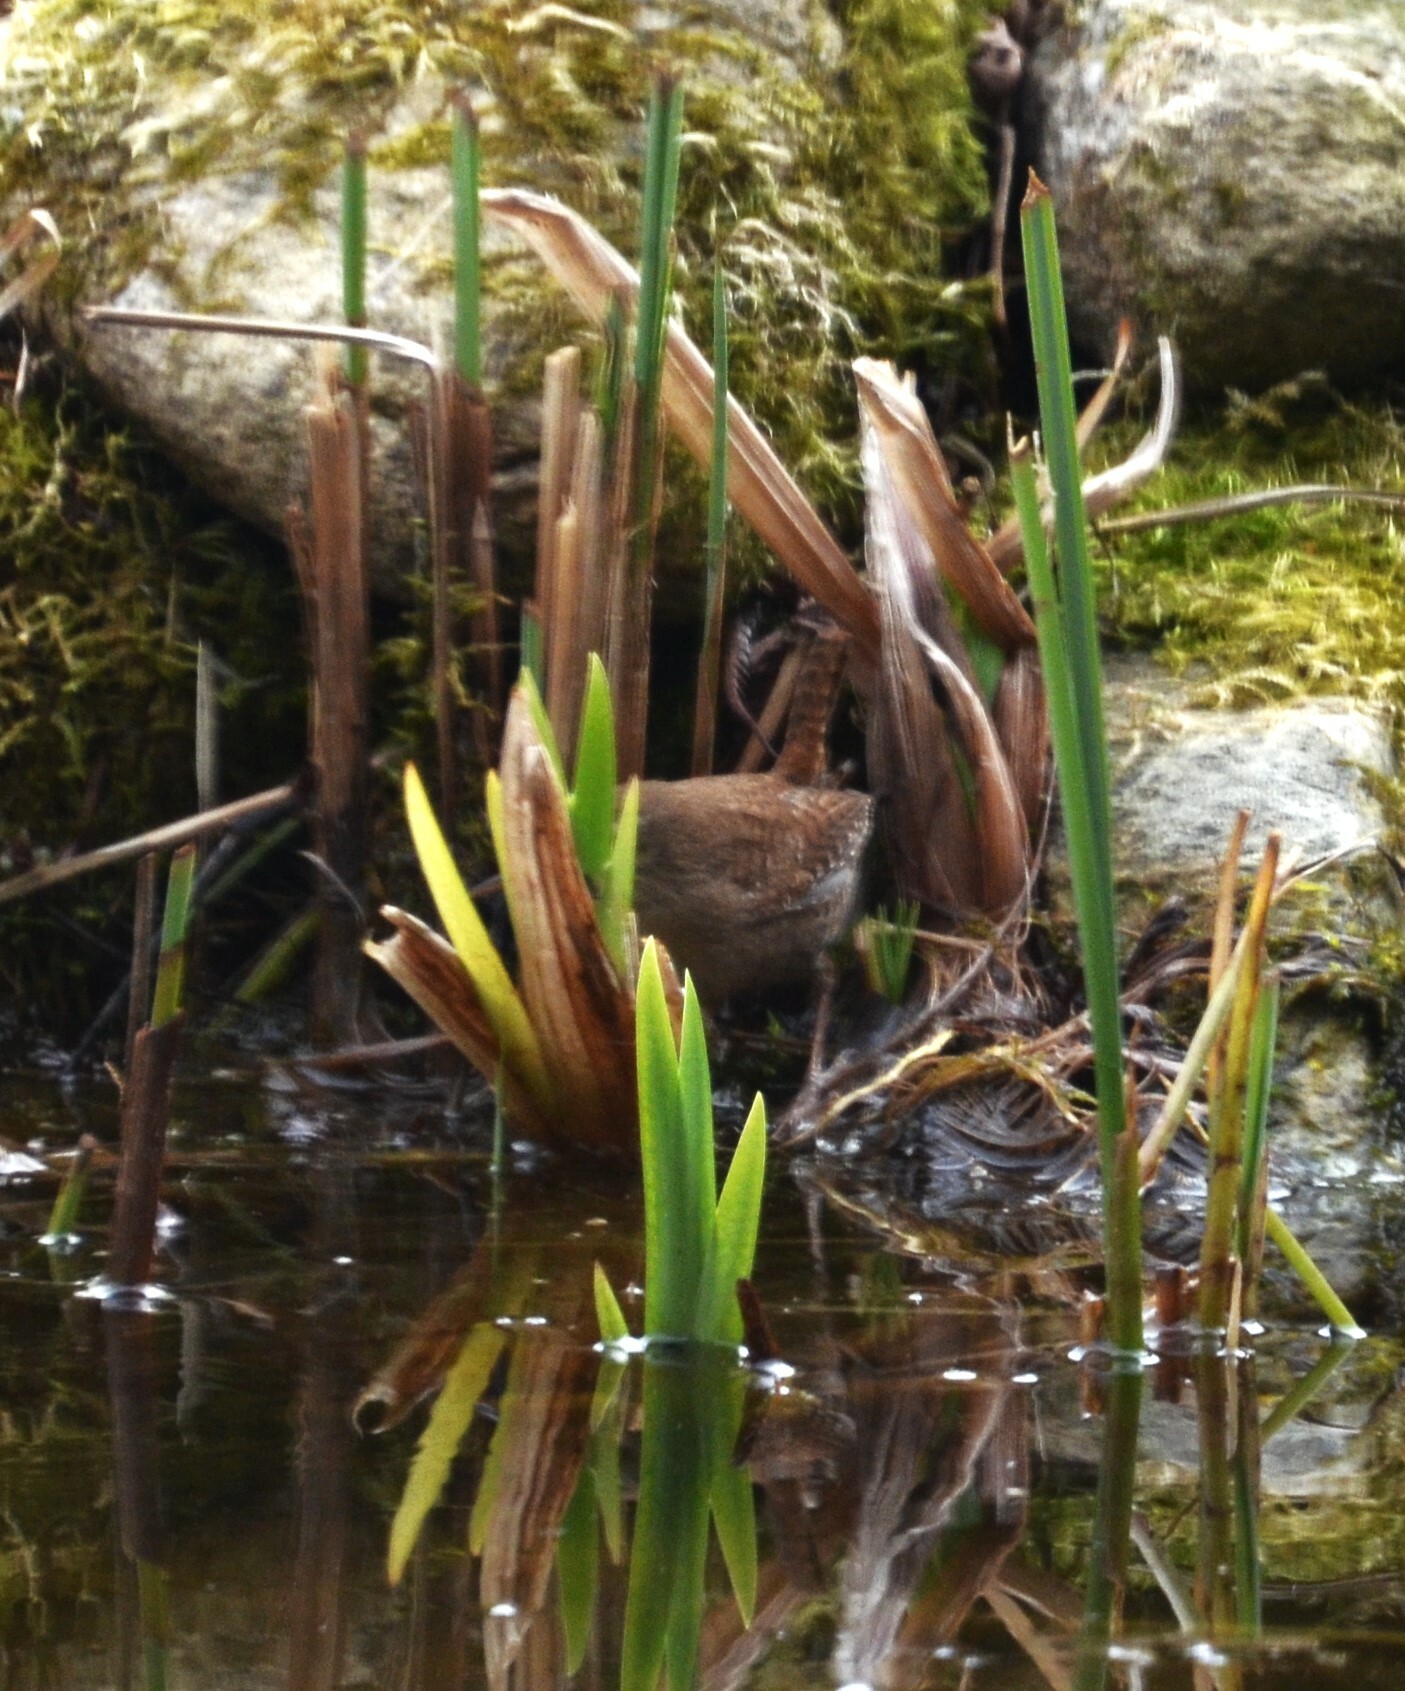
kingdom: Animalia
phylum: Chordata
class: Aves
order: Passeriformes
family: Troglodytidae
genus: Troglodytes
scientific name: Troglodytes troglodytes
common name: Eurasian wren
